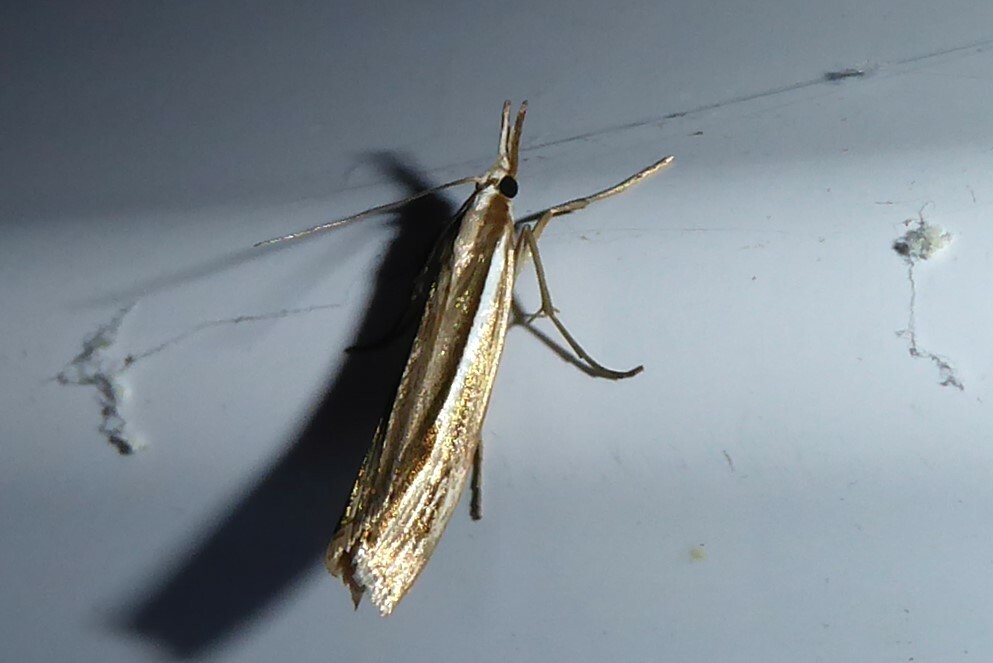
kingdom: Animalia
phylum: Arthropoda
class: Insecta
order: Lepidoptera
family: Crambidae
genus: Orocrambus
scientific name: Orocrambus ramosellus
